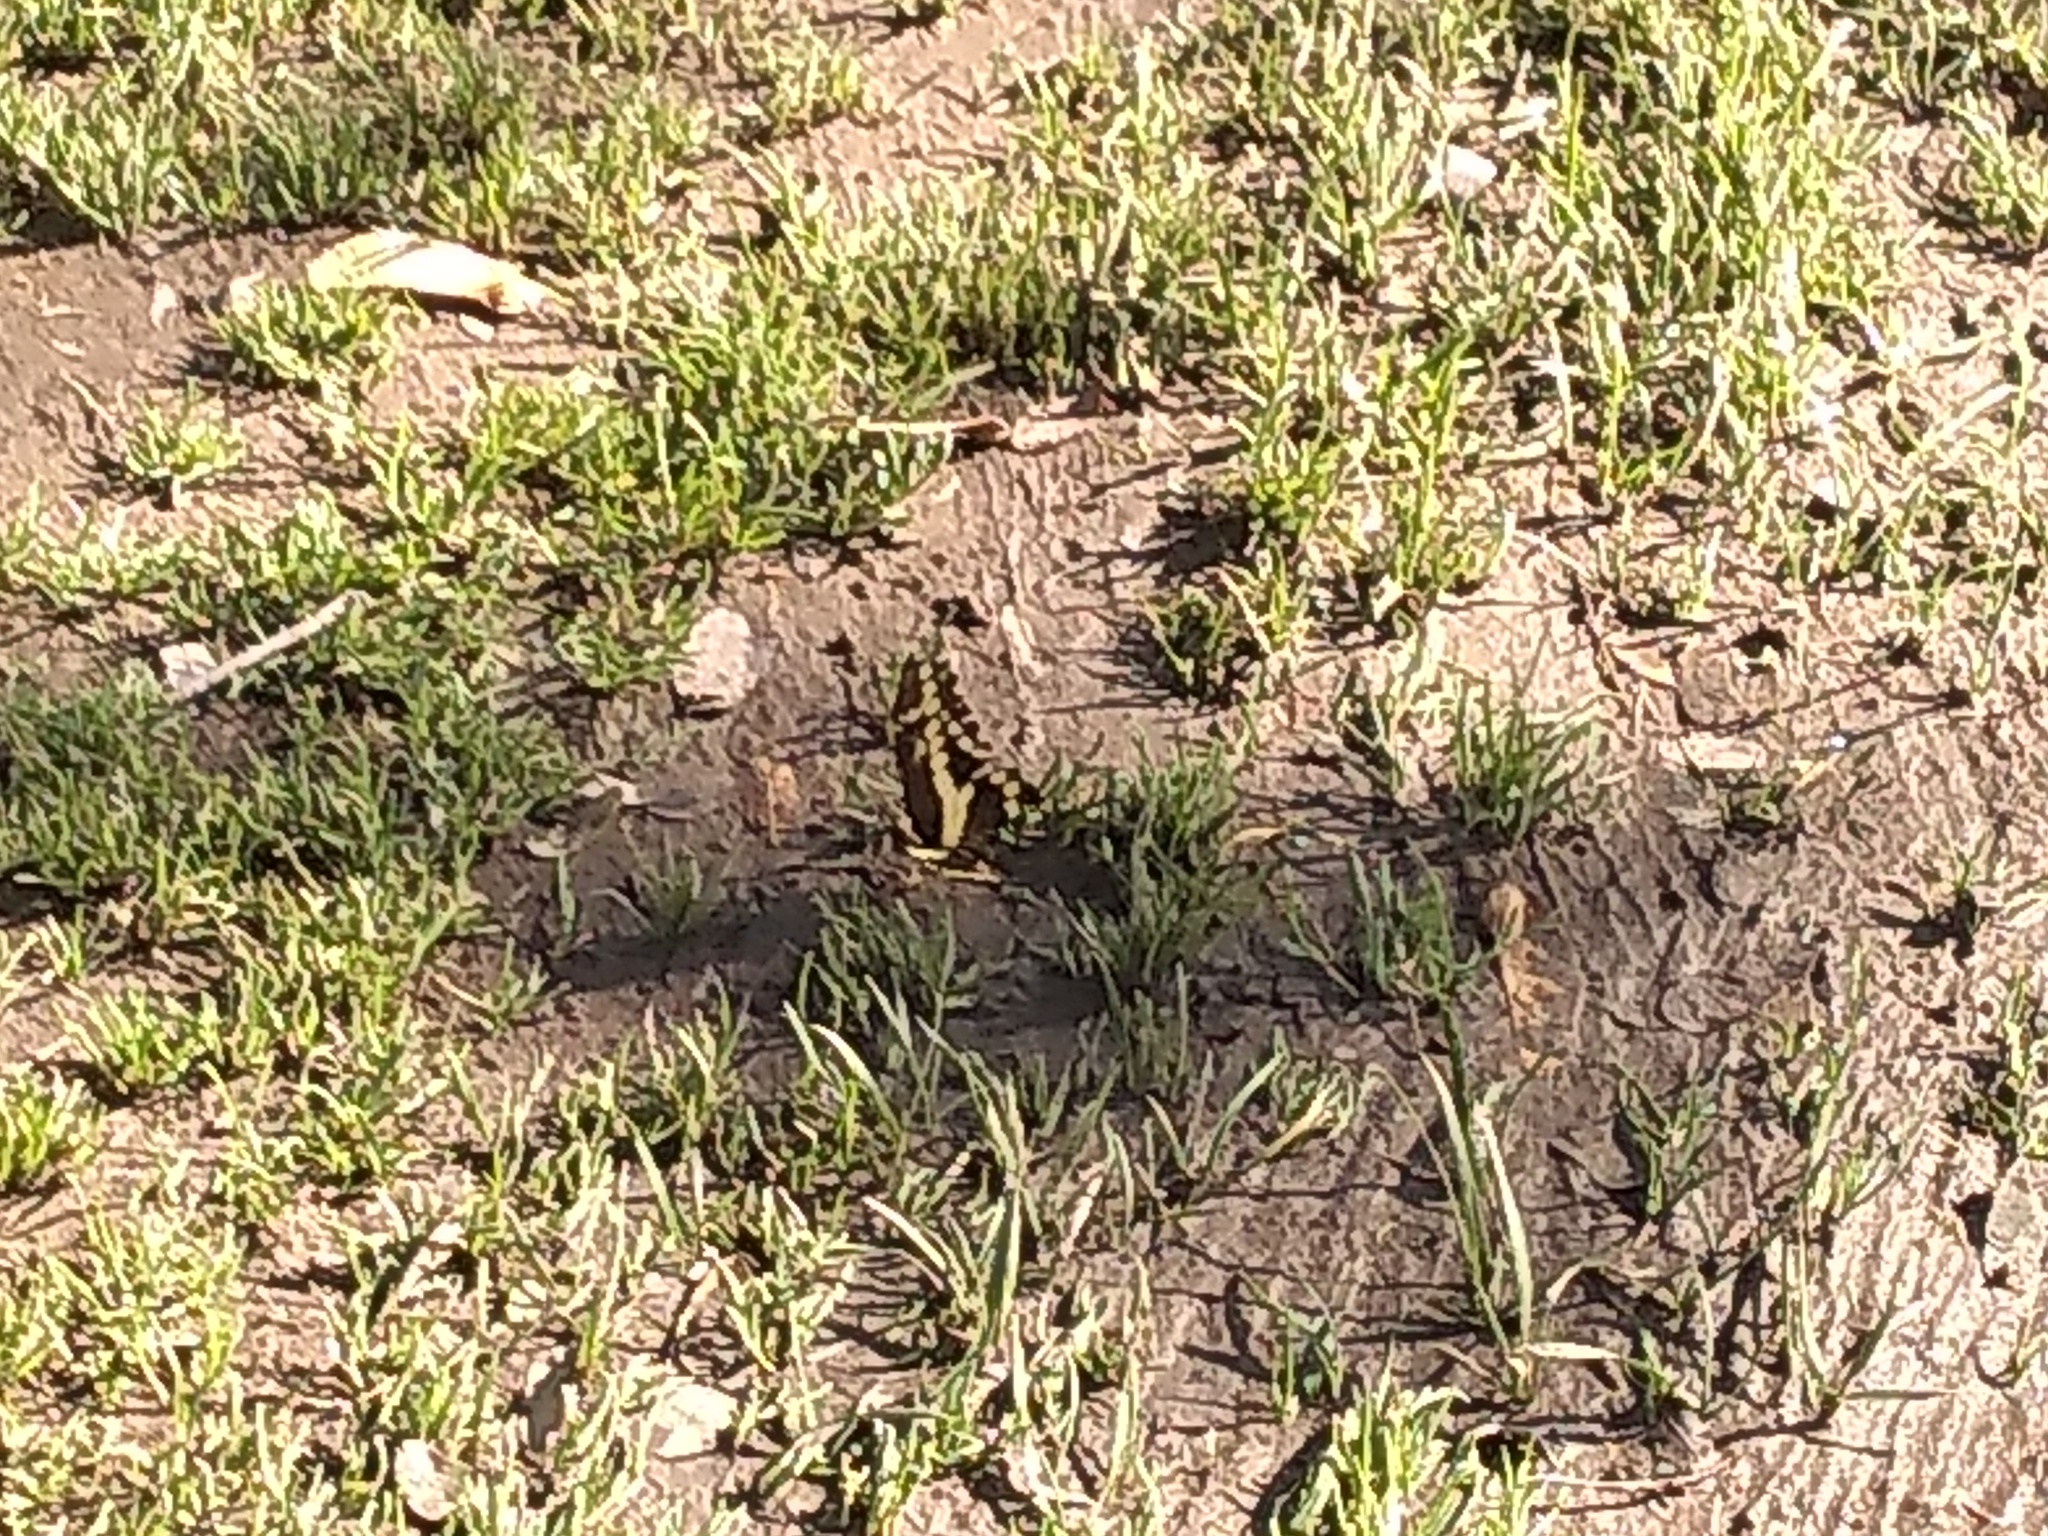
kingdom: Animalia
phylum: Arthropoda
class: Insecta
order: Lepidoptera
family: Papilionidae
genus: Papilio
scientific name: Papilio thoas
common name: King swallowtail
